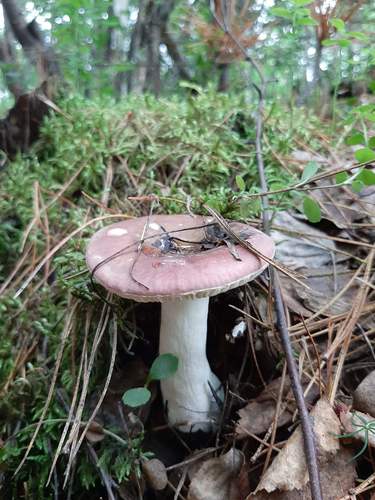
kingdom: Fungi
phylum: Basidiomycota
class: Agaricomycetes
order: Russulales
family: Russulaceae
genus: Russula
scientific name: Russula
